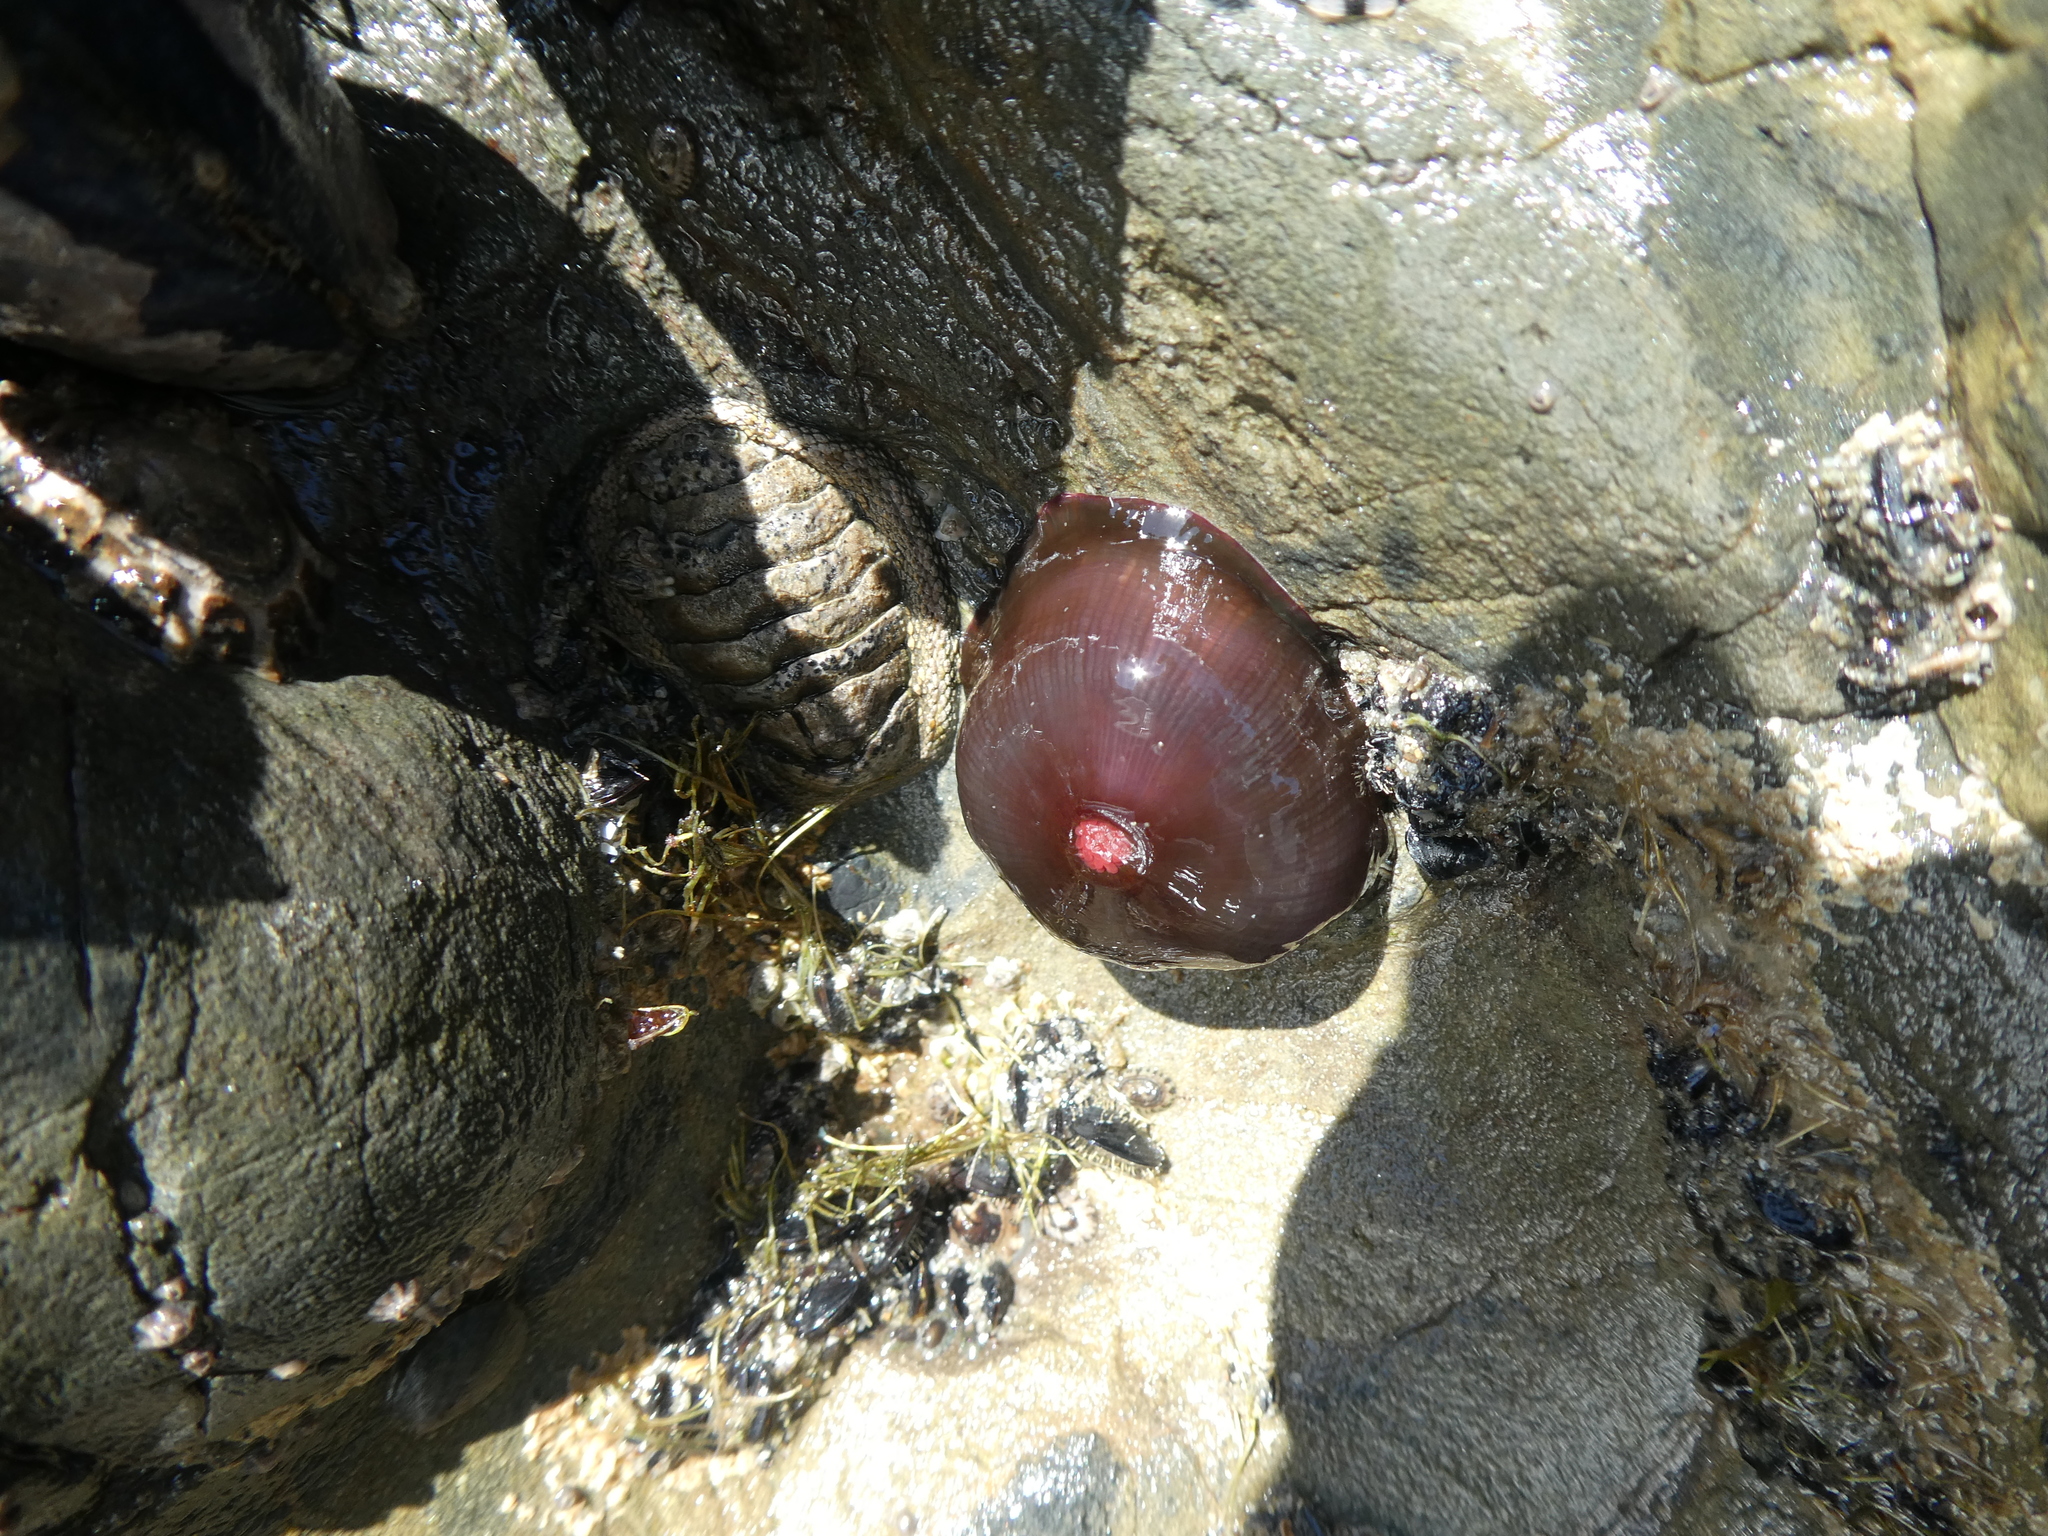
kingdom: Animalia
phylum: Cnidaria
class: Anthozoa
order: Actiniaria
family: Actiniidae
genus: Actinia
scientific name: Actinia tenebrosa
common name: Waratah anemone
